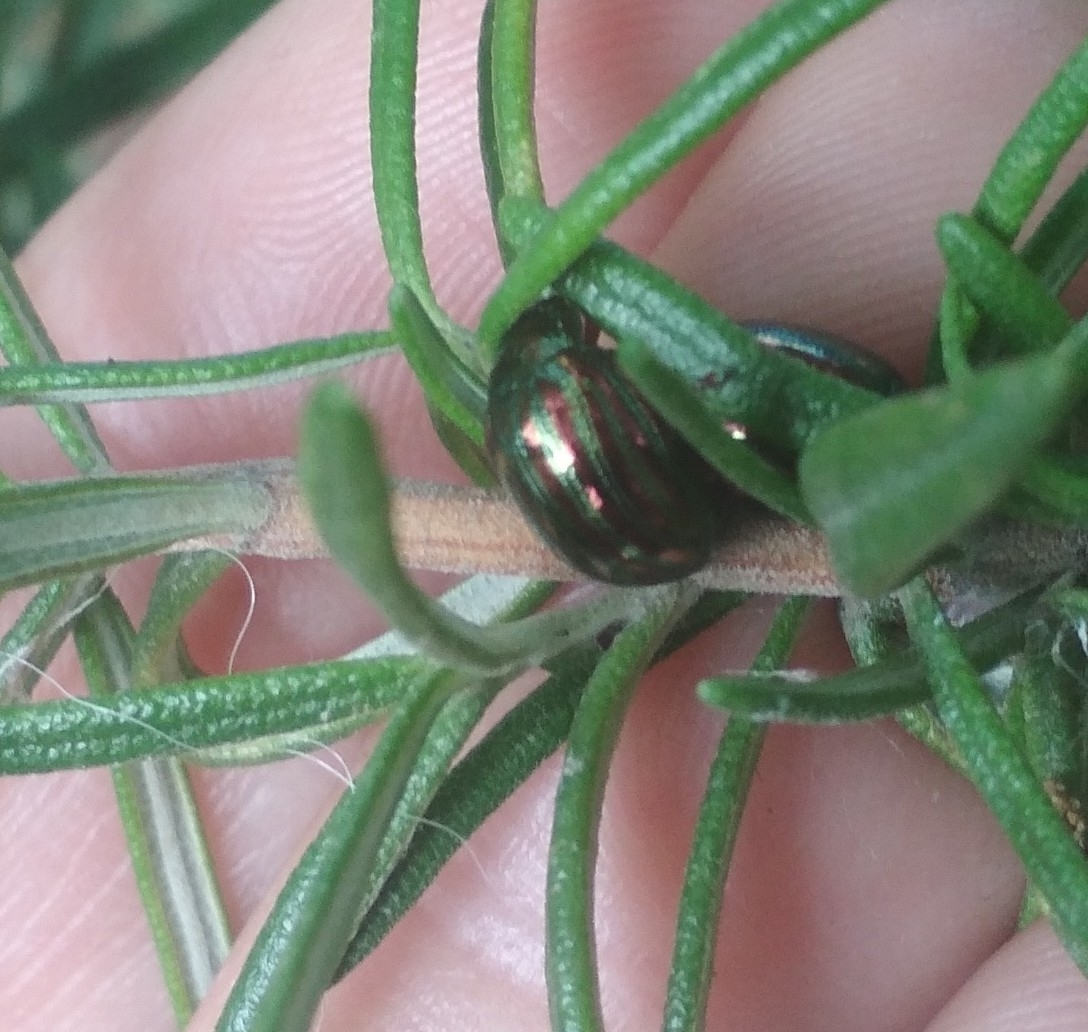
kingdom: Animalia
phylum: Arthropoda
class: Insecta
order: Coleoptera
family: Chrysomelidae
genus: Chrysolina
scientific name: Chrysolina americana
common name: Rosemary beetle
